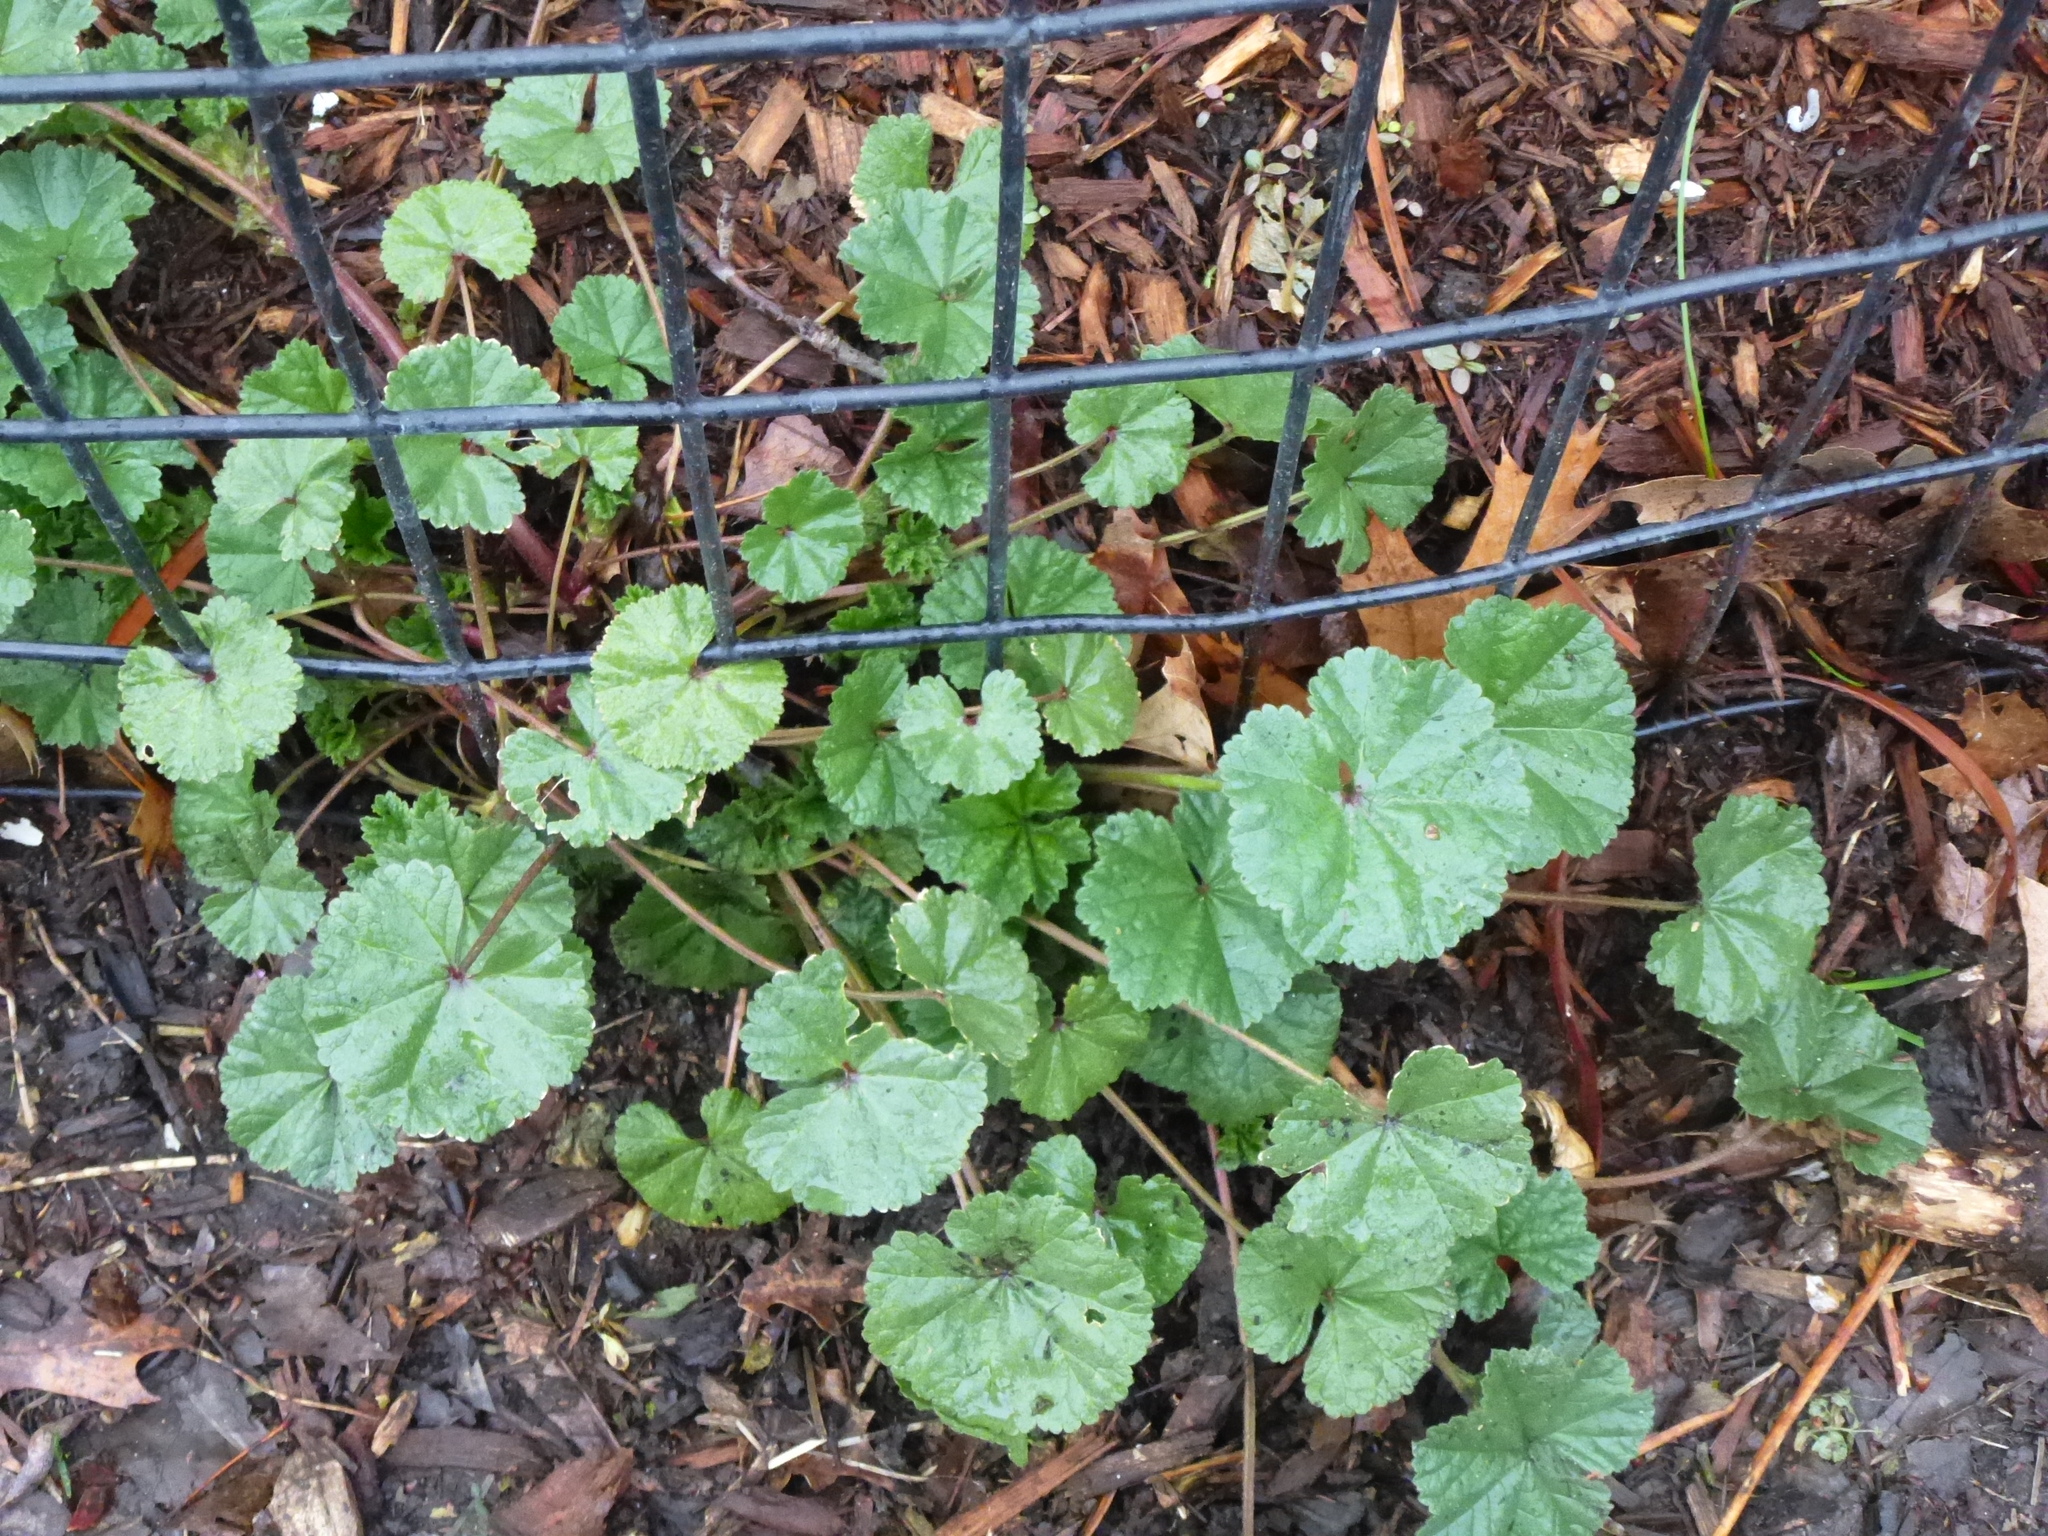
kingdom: Plantae
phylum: Tracheophyta
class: Magnoliopsida
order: Malvales
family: Malvaceae
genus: Malva
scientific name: Malva neglecta
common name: Common mallow
